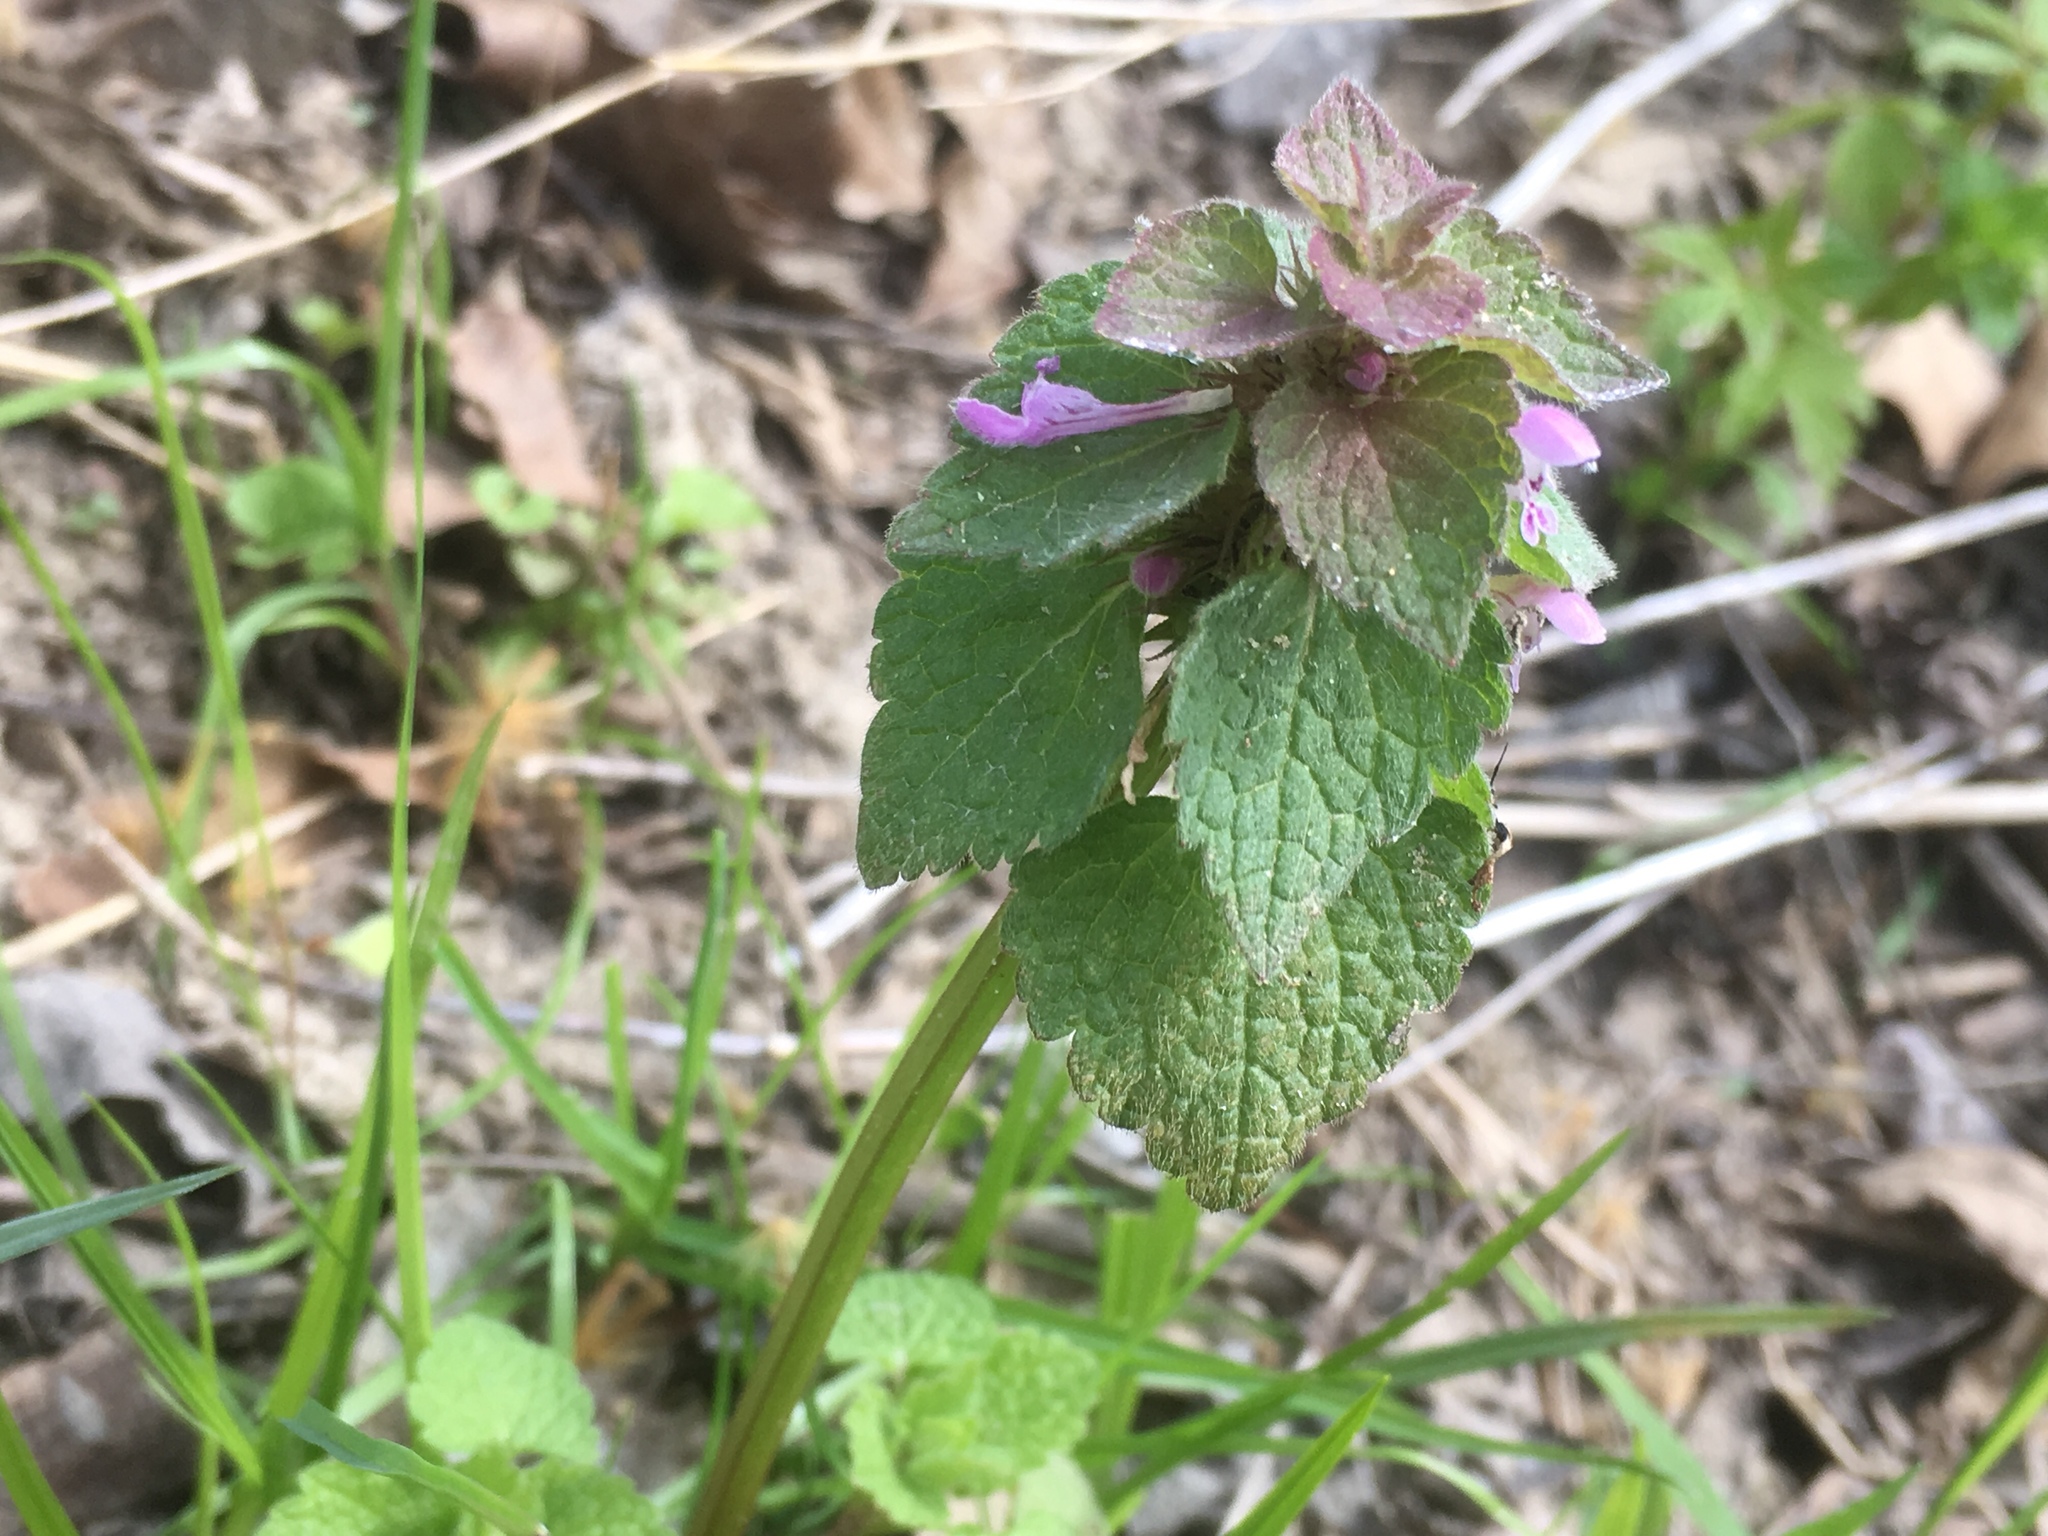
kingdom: Plantae
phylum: Tracheophyta
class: Magnoliopsida
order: Lamiales
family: Lamiaceae
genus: Lamium
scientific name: Lamium purpureum
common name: Red dead-nettle
